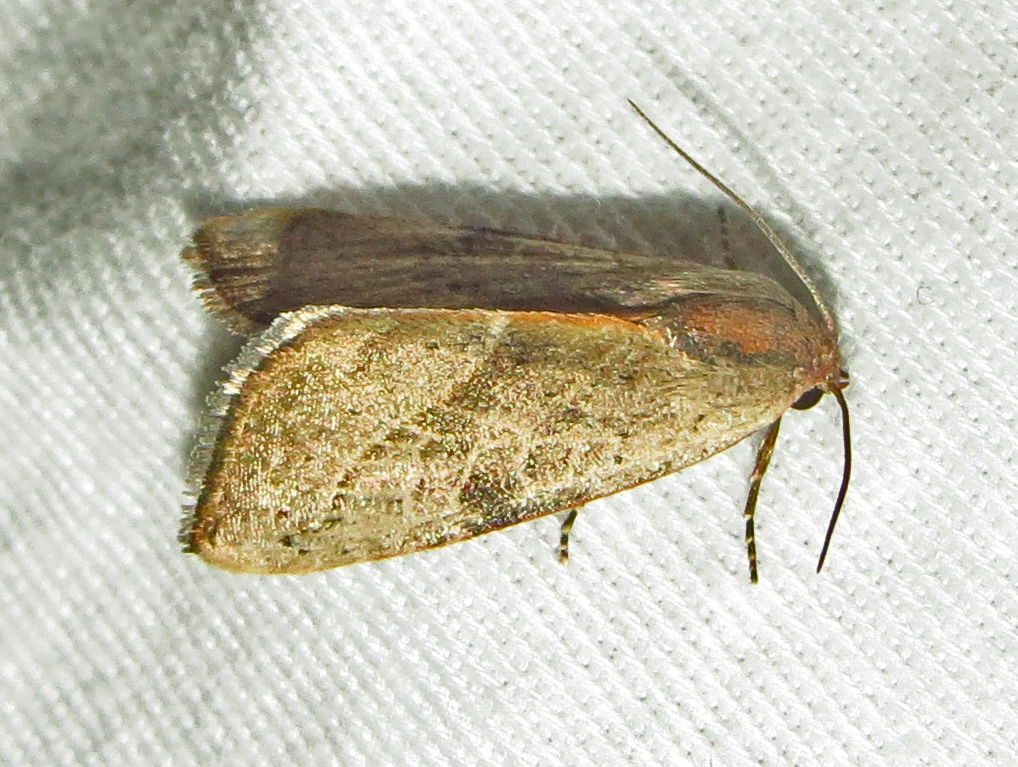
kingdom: Animalia
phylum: Arthropoda
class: Insecta
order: Lepidoptera
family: Noctuidae
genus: Galgula
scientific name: Galgula partita
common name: Wedgeling
